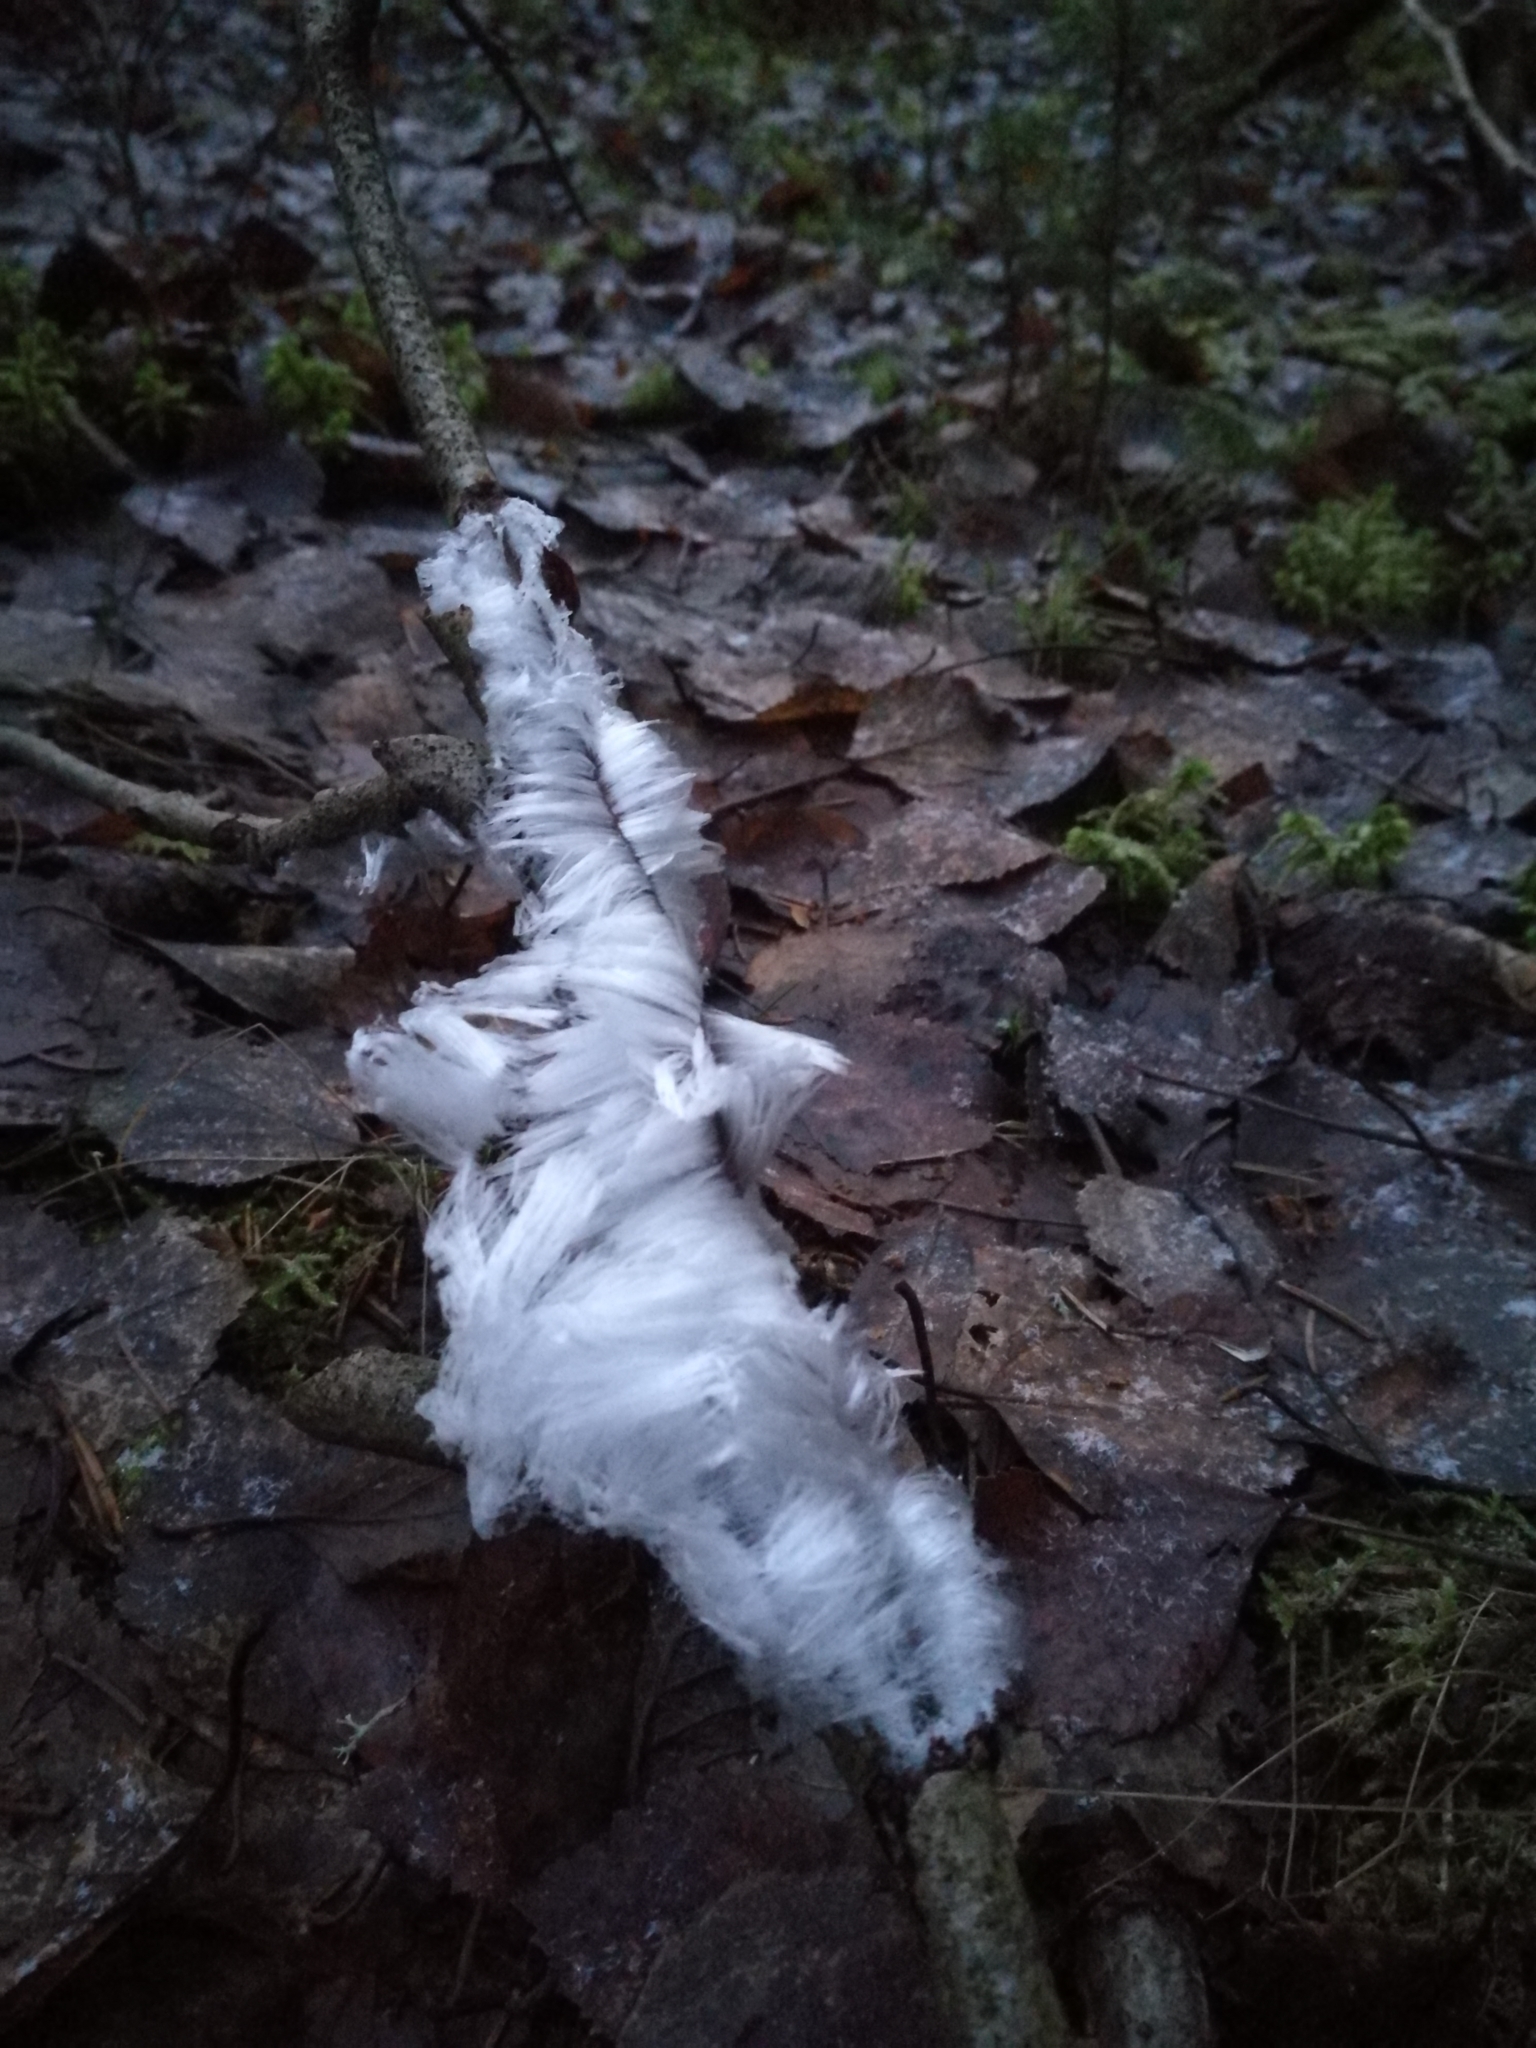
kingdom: Fungi
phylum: Basidiomycota
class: Agaricomycetes
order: Auriculariales
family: Auriculariaceae
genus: Exidiopsis
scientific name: Exidiopsis effusa
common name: Hair ice crust
